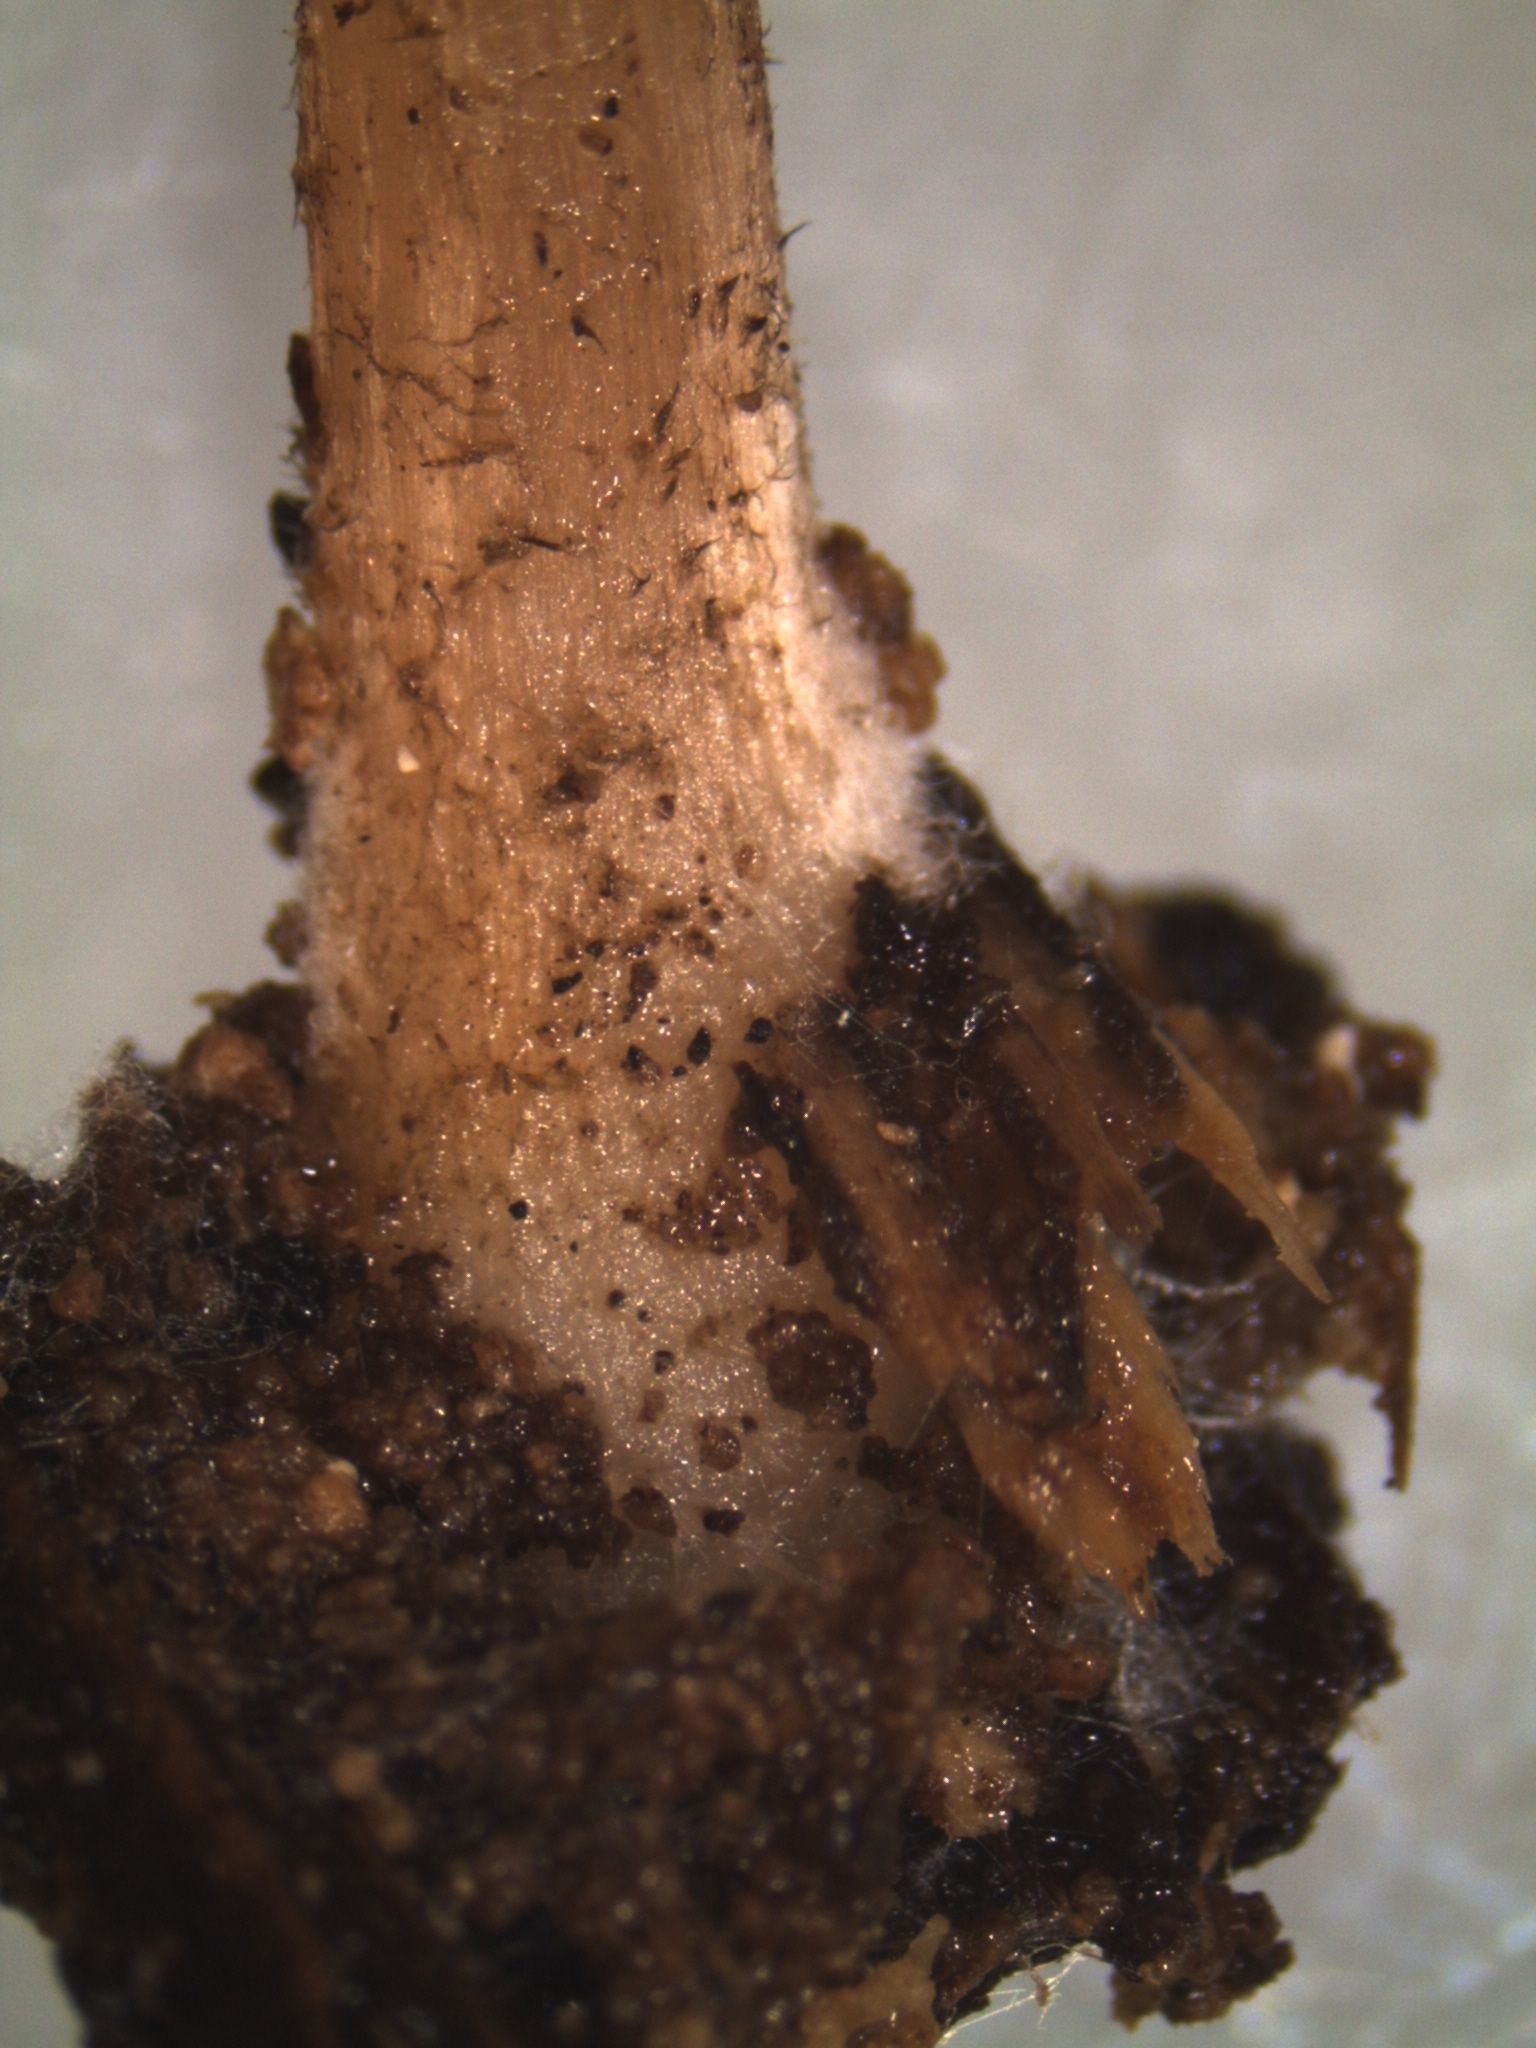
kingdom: Fungi
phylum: Basidiomycota
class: Agaricomycetes
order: Agaricales
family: Pluteaceae
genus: Pluteus
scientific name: Pluteus perroseus
